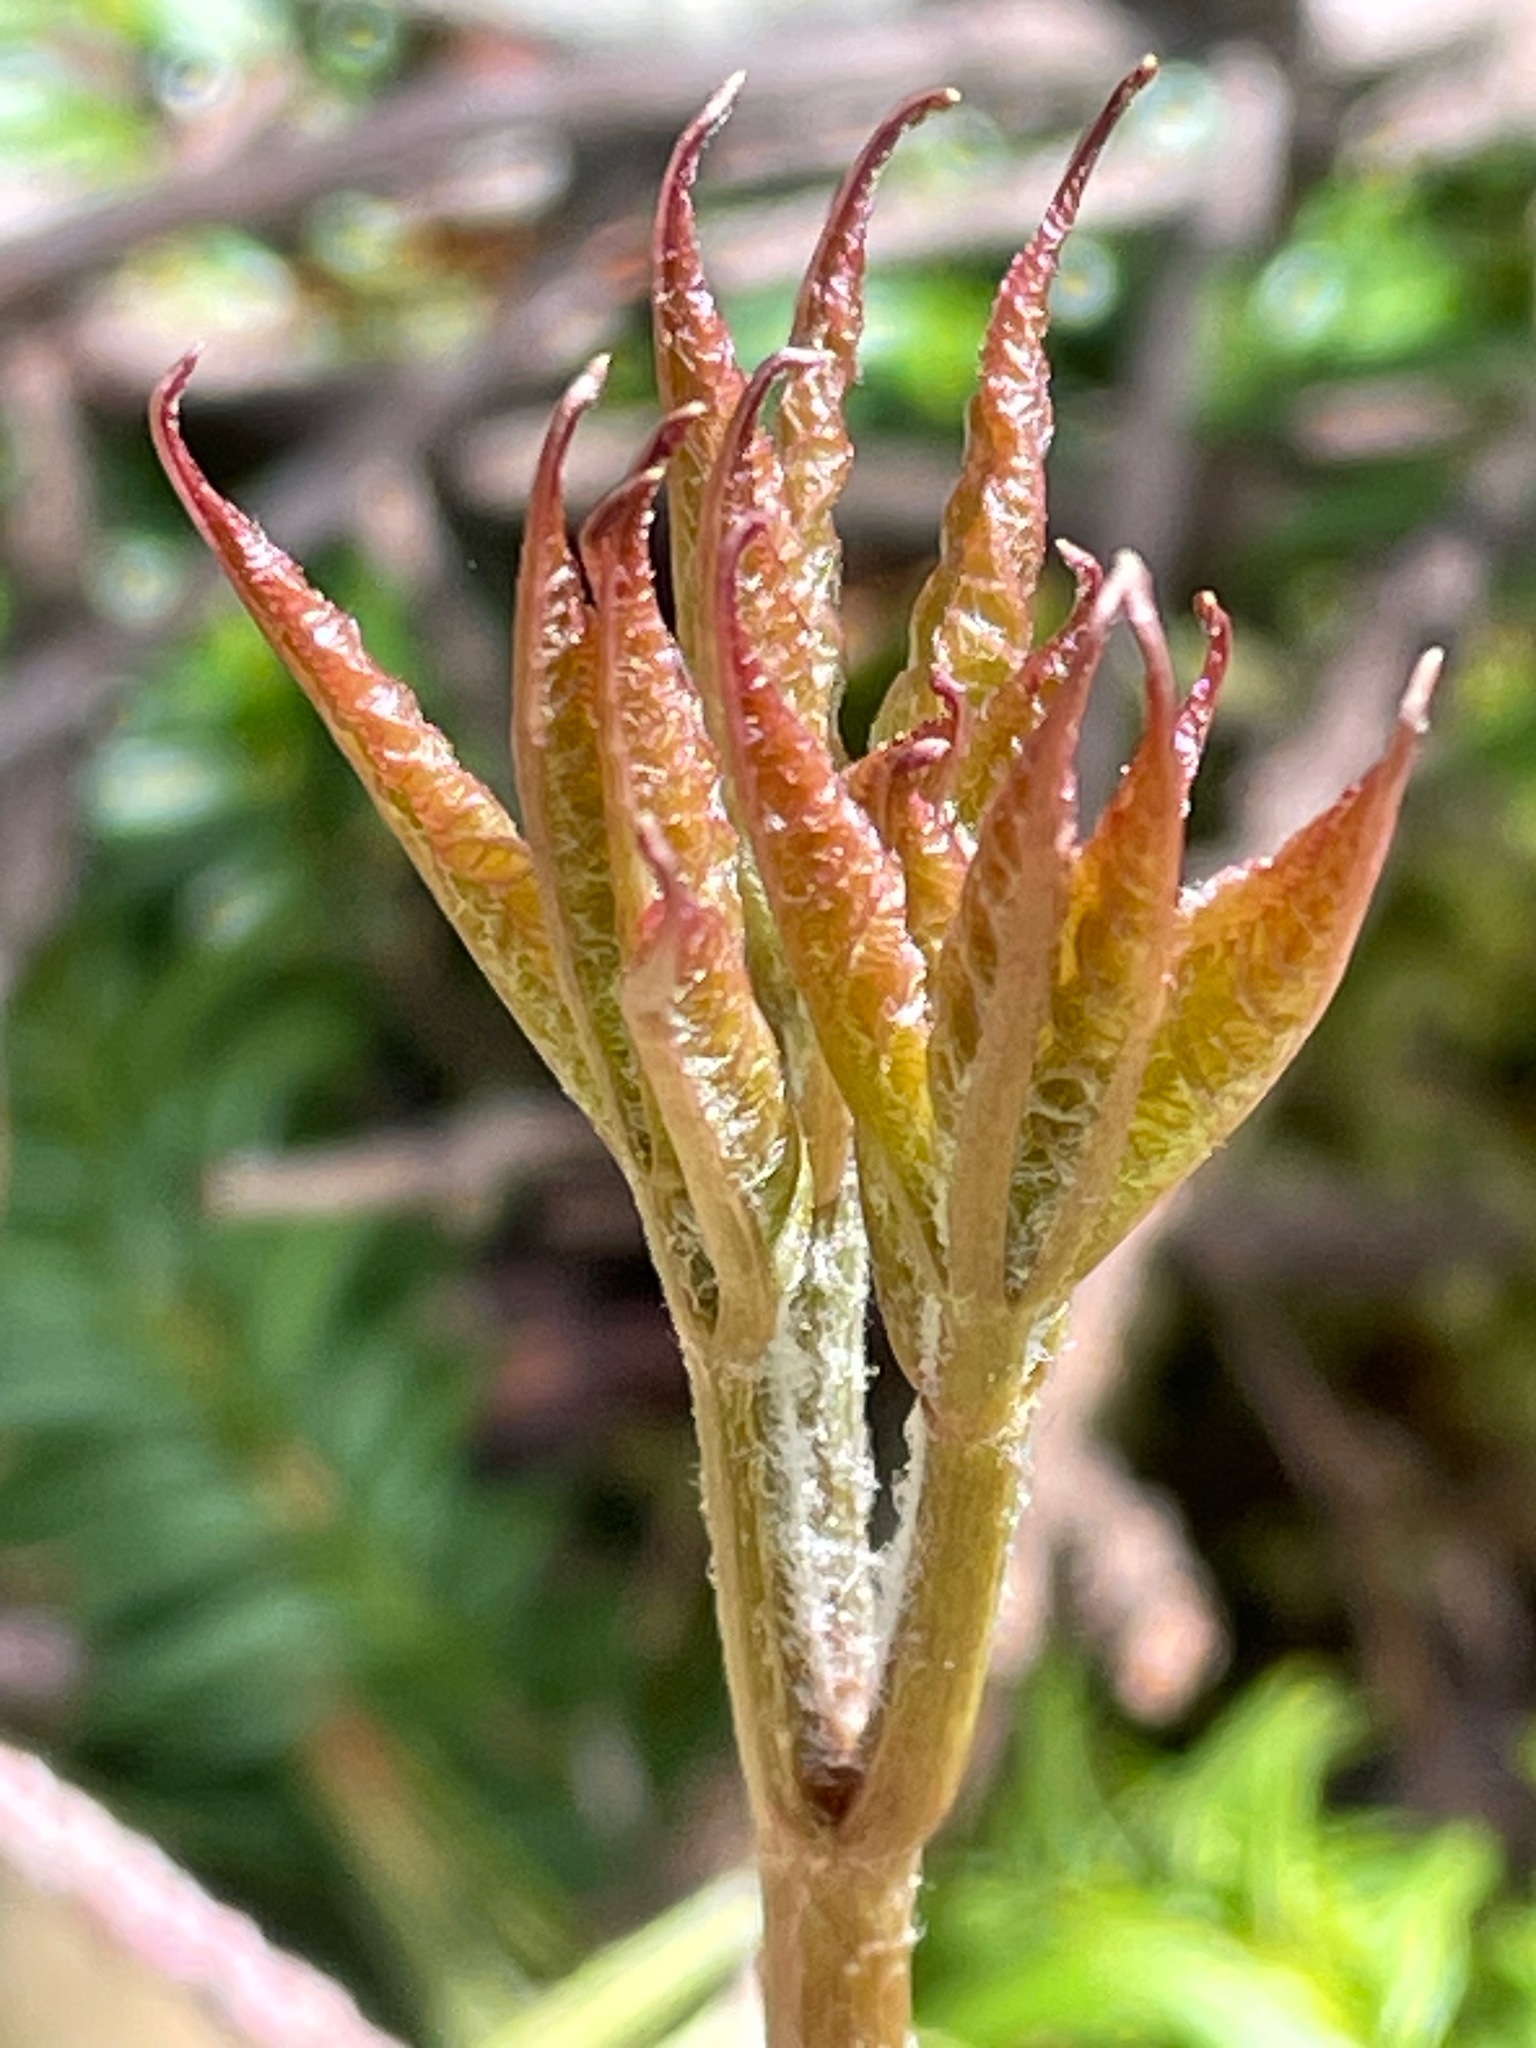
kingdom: Plantae
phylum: Tracheophyta
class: Magnoliopsida
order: Apiales
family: Araliaceae
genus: Aralia
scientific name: Aralia nudicaulis
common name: Wild sarsaparilla
